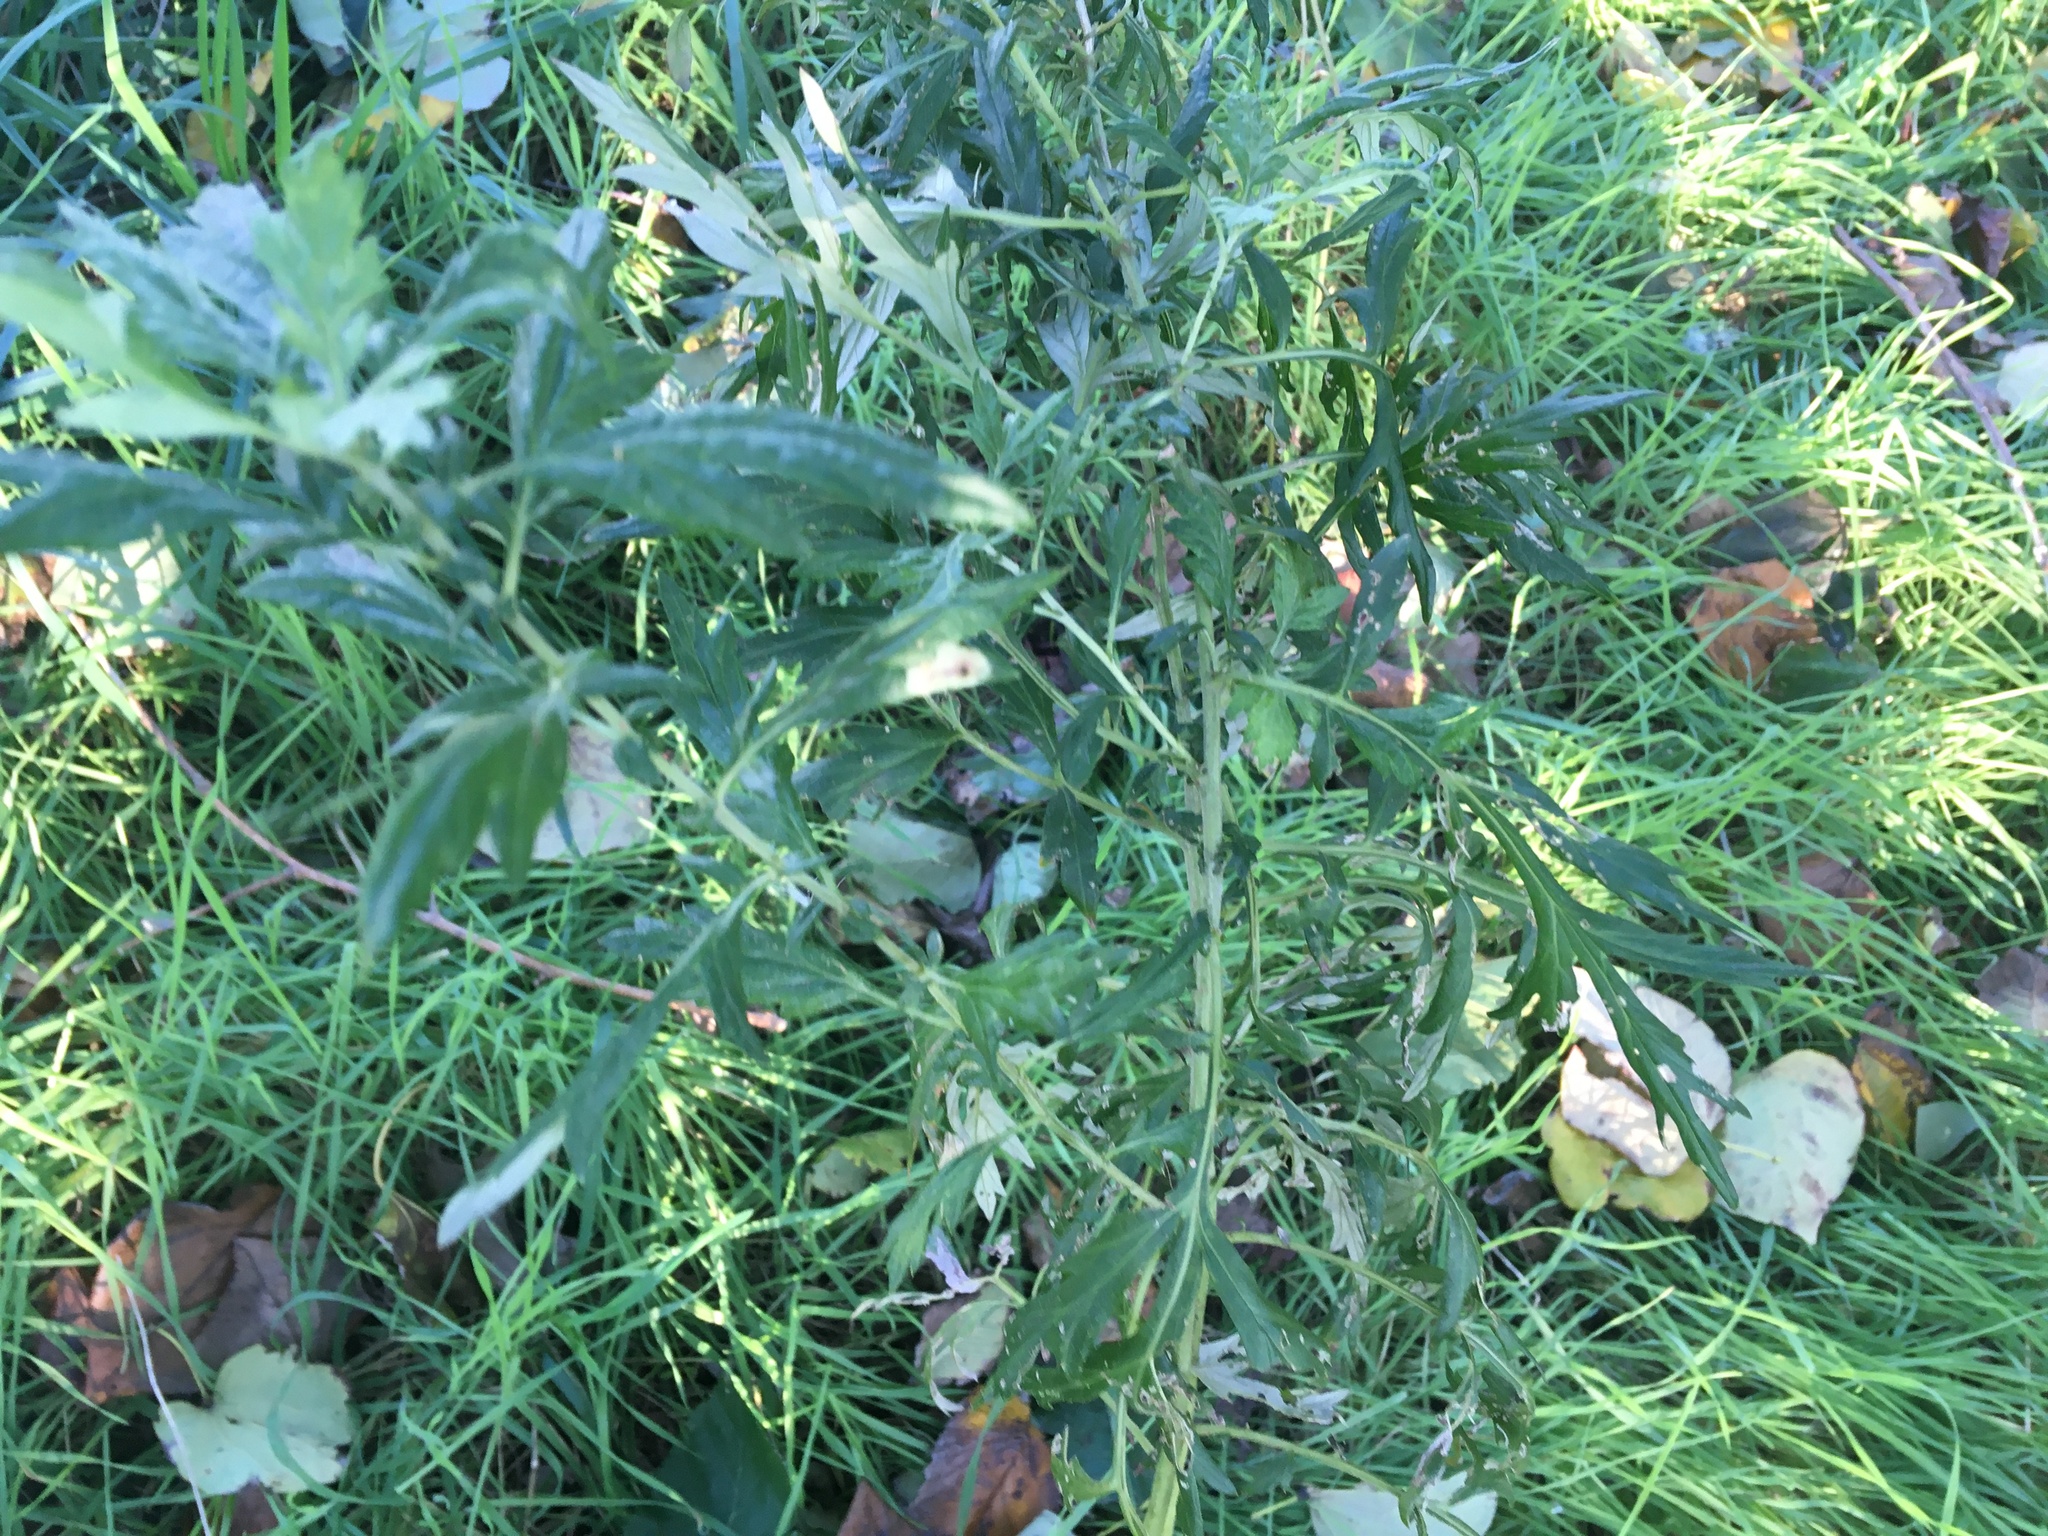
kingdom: Plantae
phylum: Tracheophyta
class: Magnoliopsida
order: Asterales
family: Asteraceae
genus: Artemisia
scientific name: Artemisia vulgaris
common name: Mugwort
